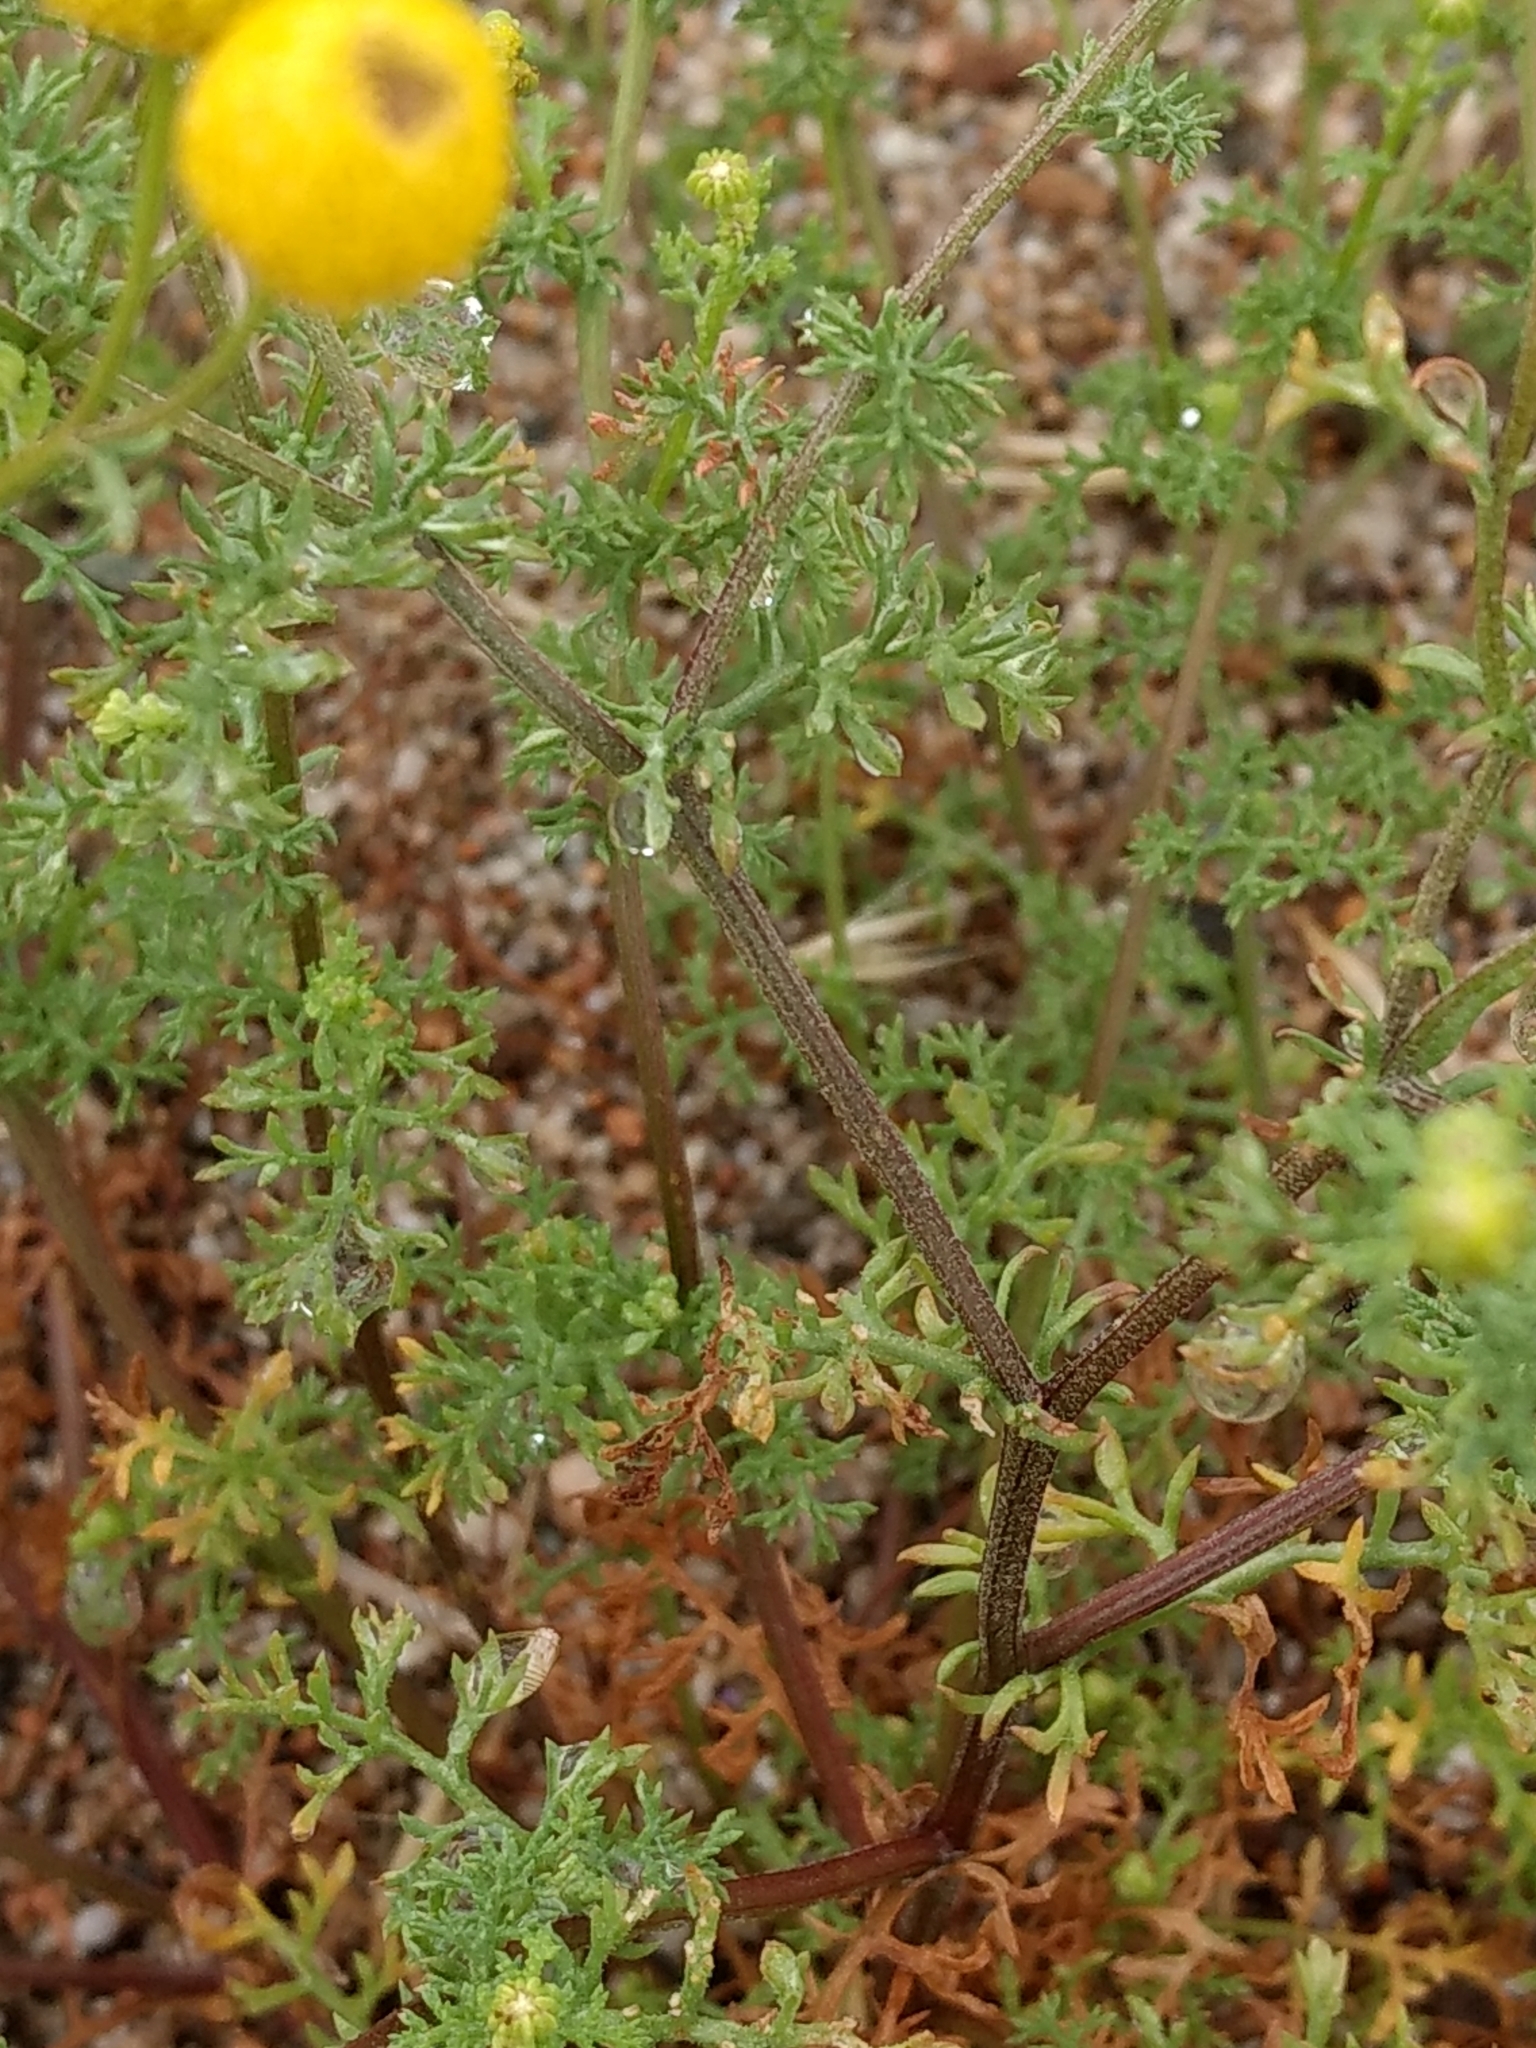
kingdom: Plantae
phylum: Tracheophyta
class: Magnoliopsida
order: Asterales
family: Asteraceae
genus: Oncosiphon
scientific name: Oncosiphon pilulifer
